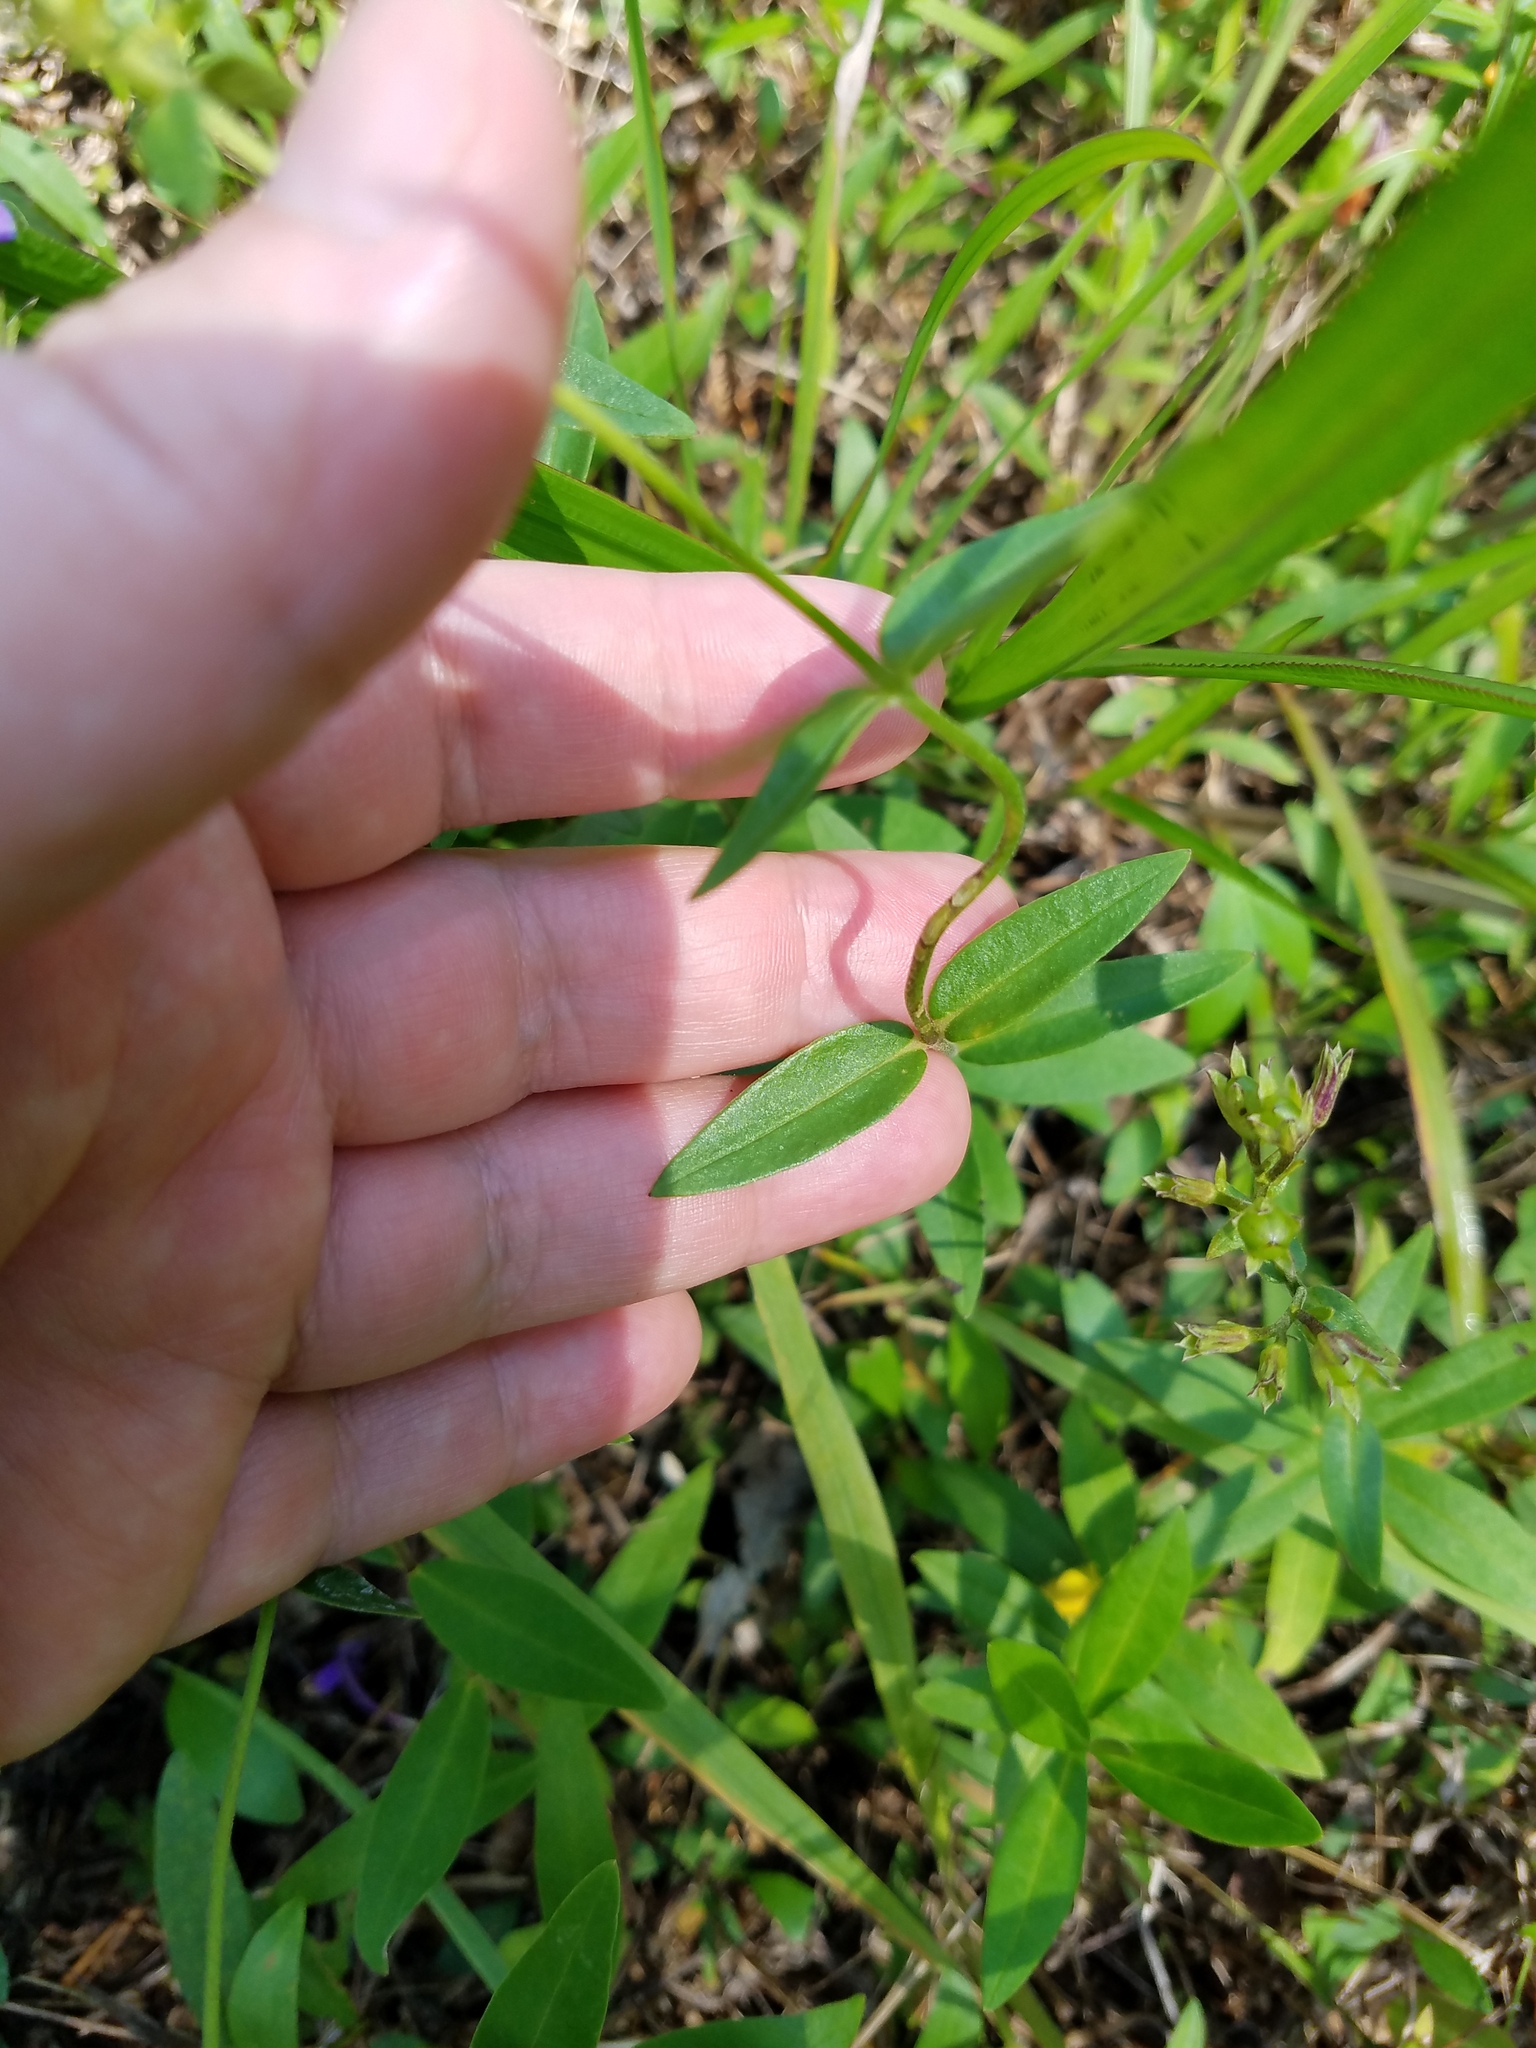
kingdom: Plantae
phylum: Tracheophyta
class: Magnoliopsida
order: Ericales
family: Polemoniaceae
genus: Phlox
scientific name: Phlox glaberrima
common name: Smooth phlox
